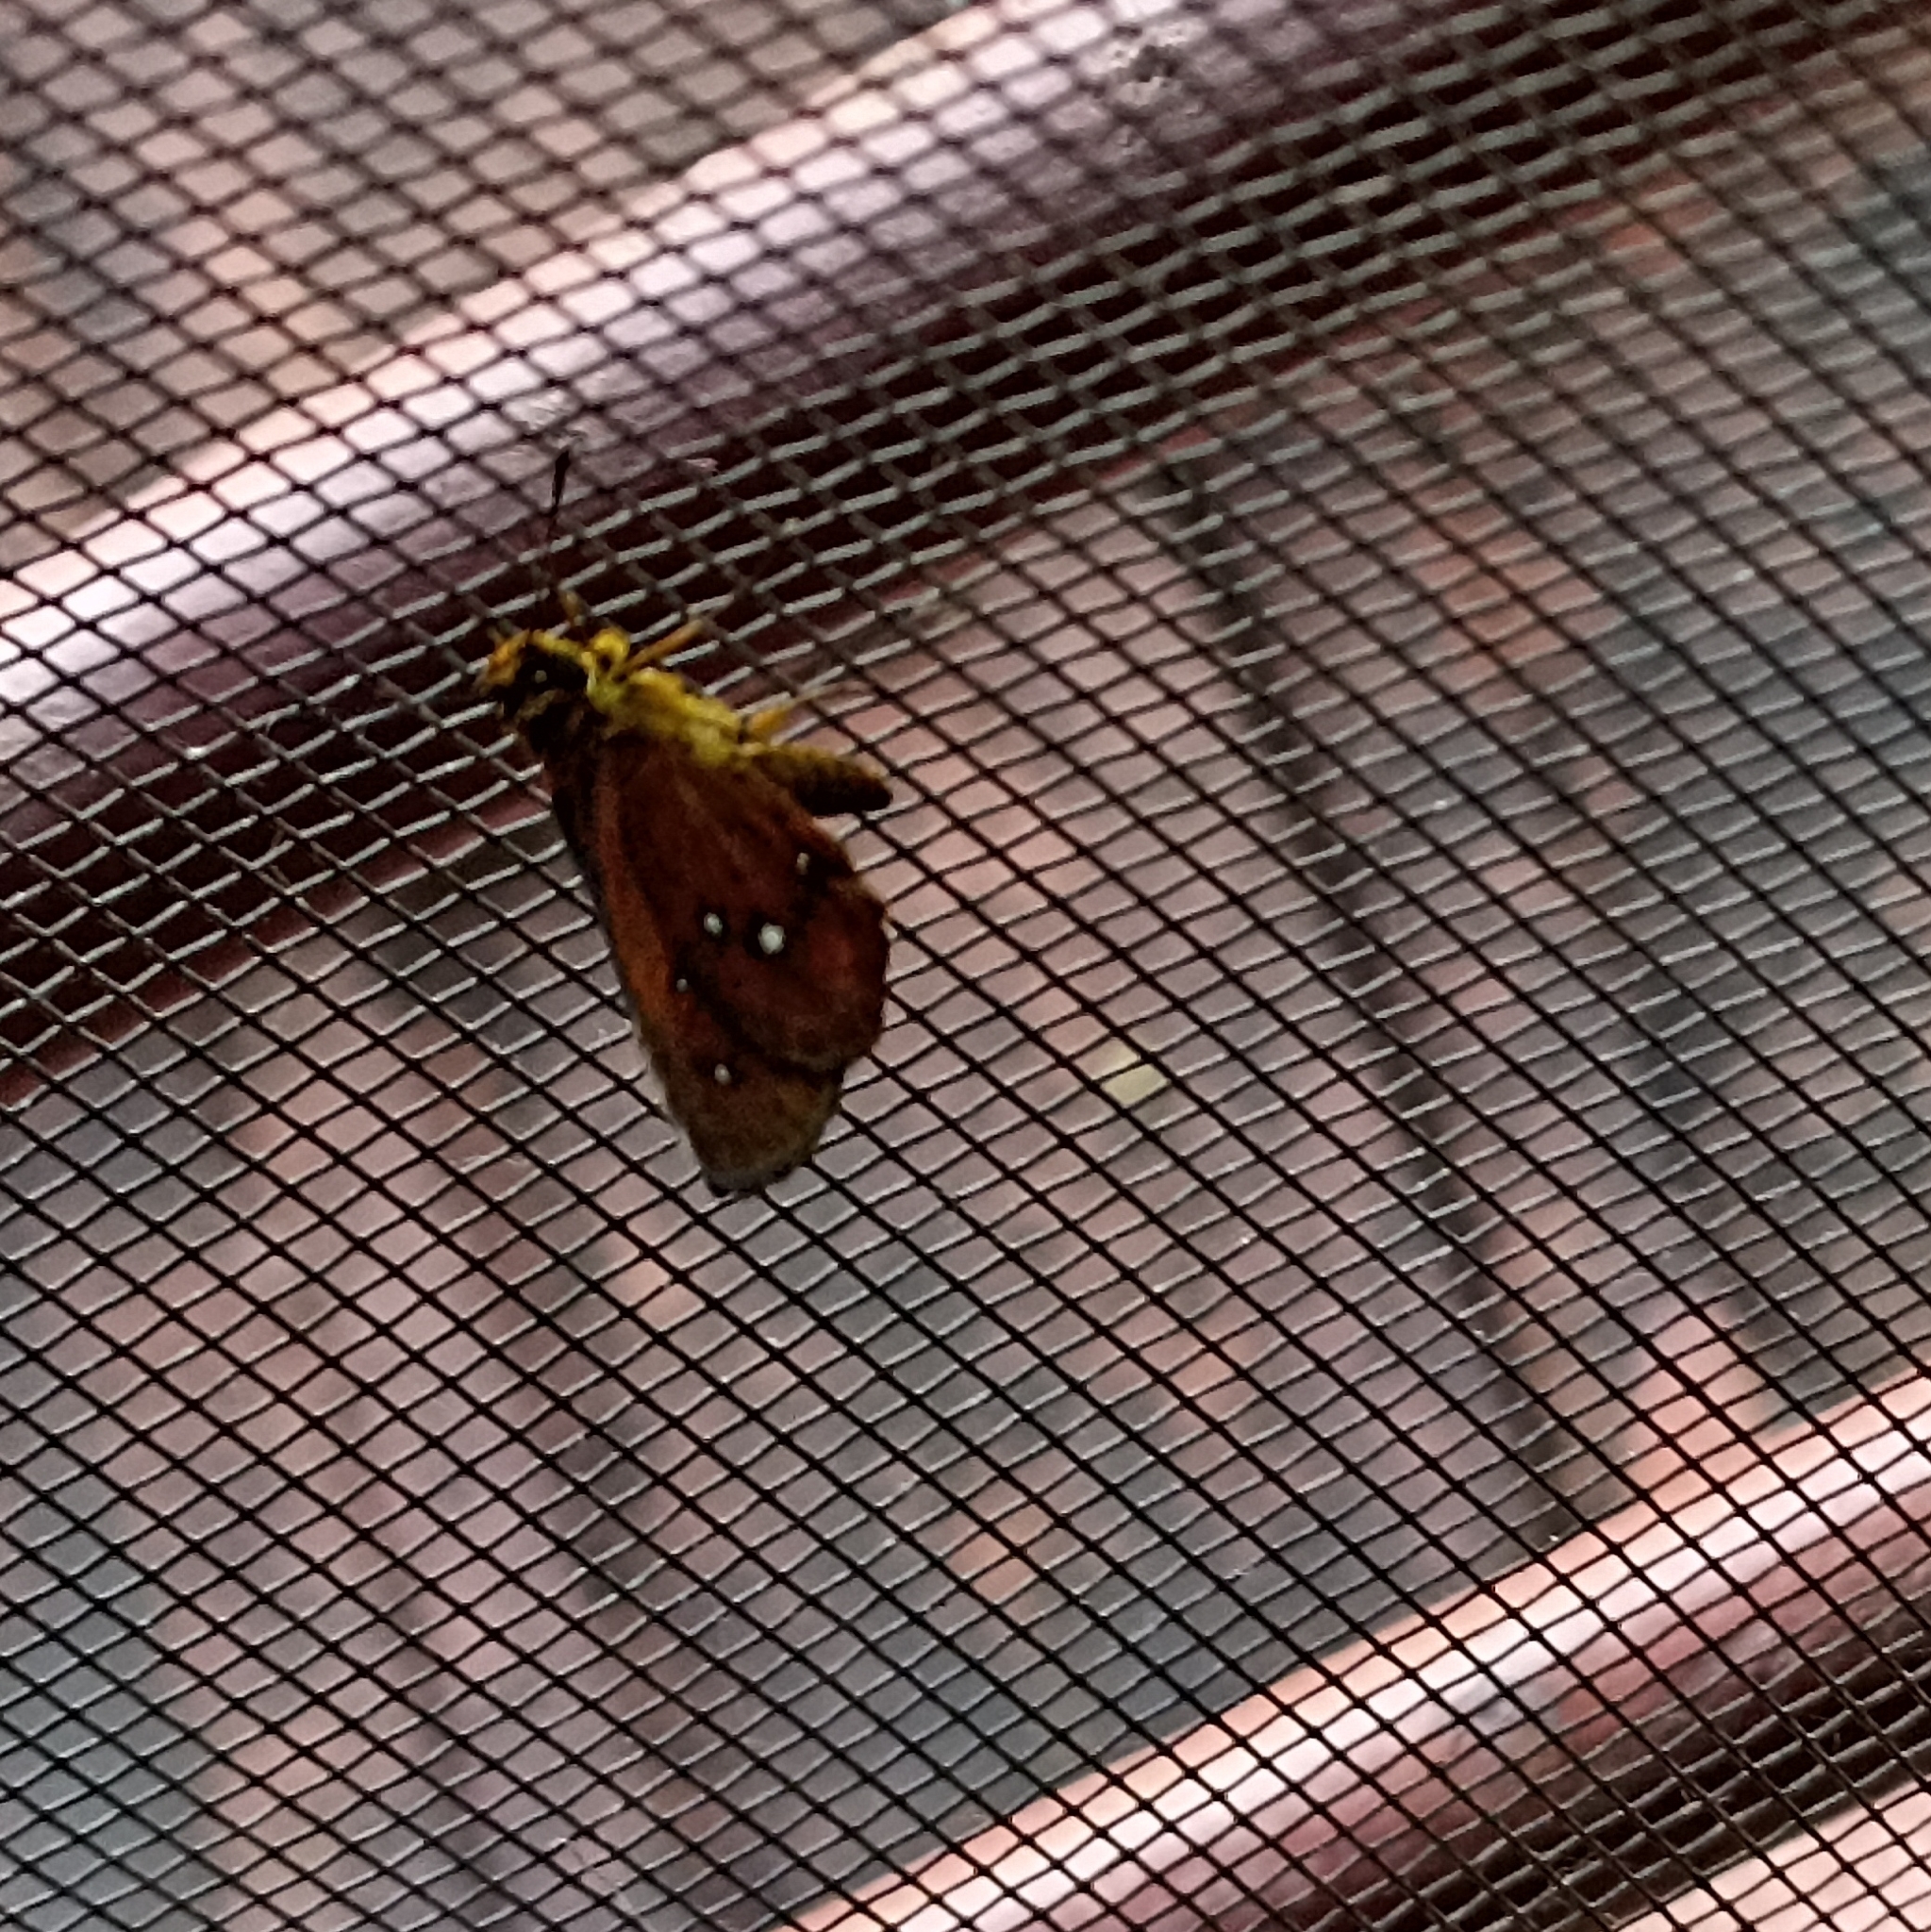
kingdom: Animalia
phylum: Arthropoda
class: Insecta
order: Lepidoptera
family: Hesperiidae
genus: Iambrix
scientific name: Iambrix salsala
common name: Chestnut bob
